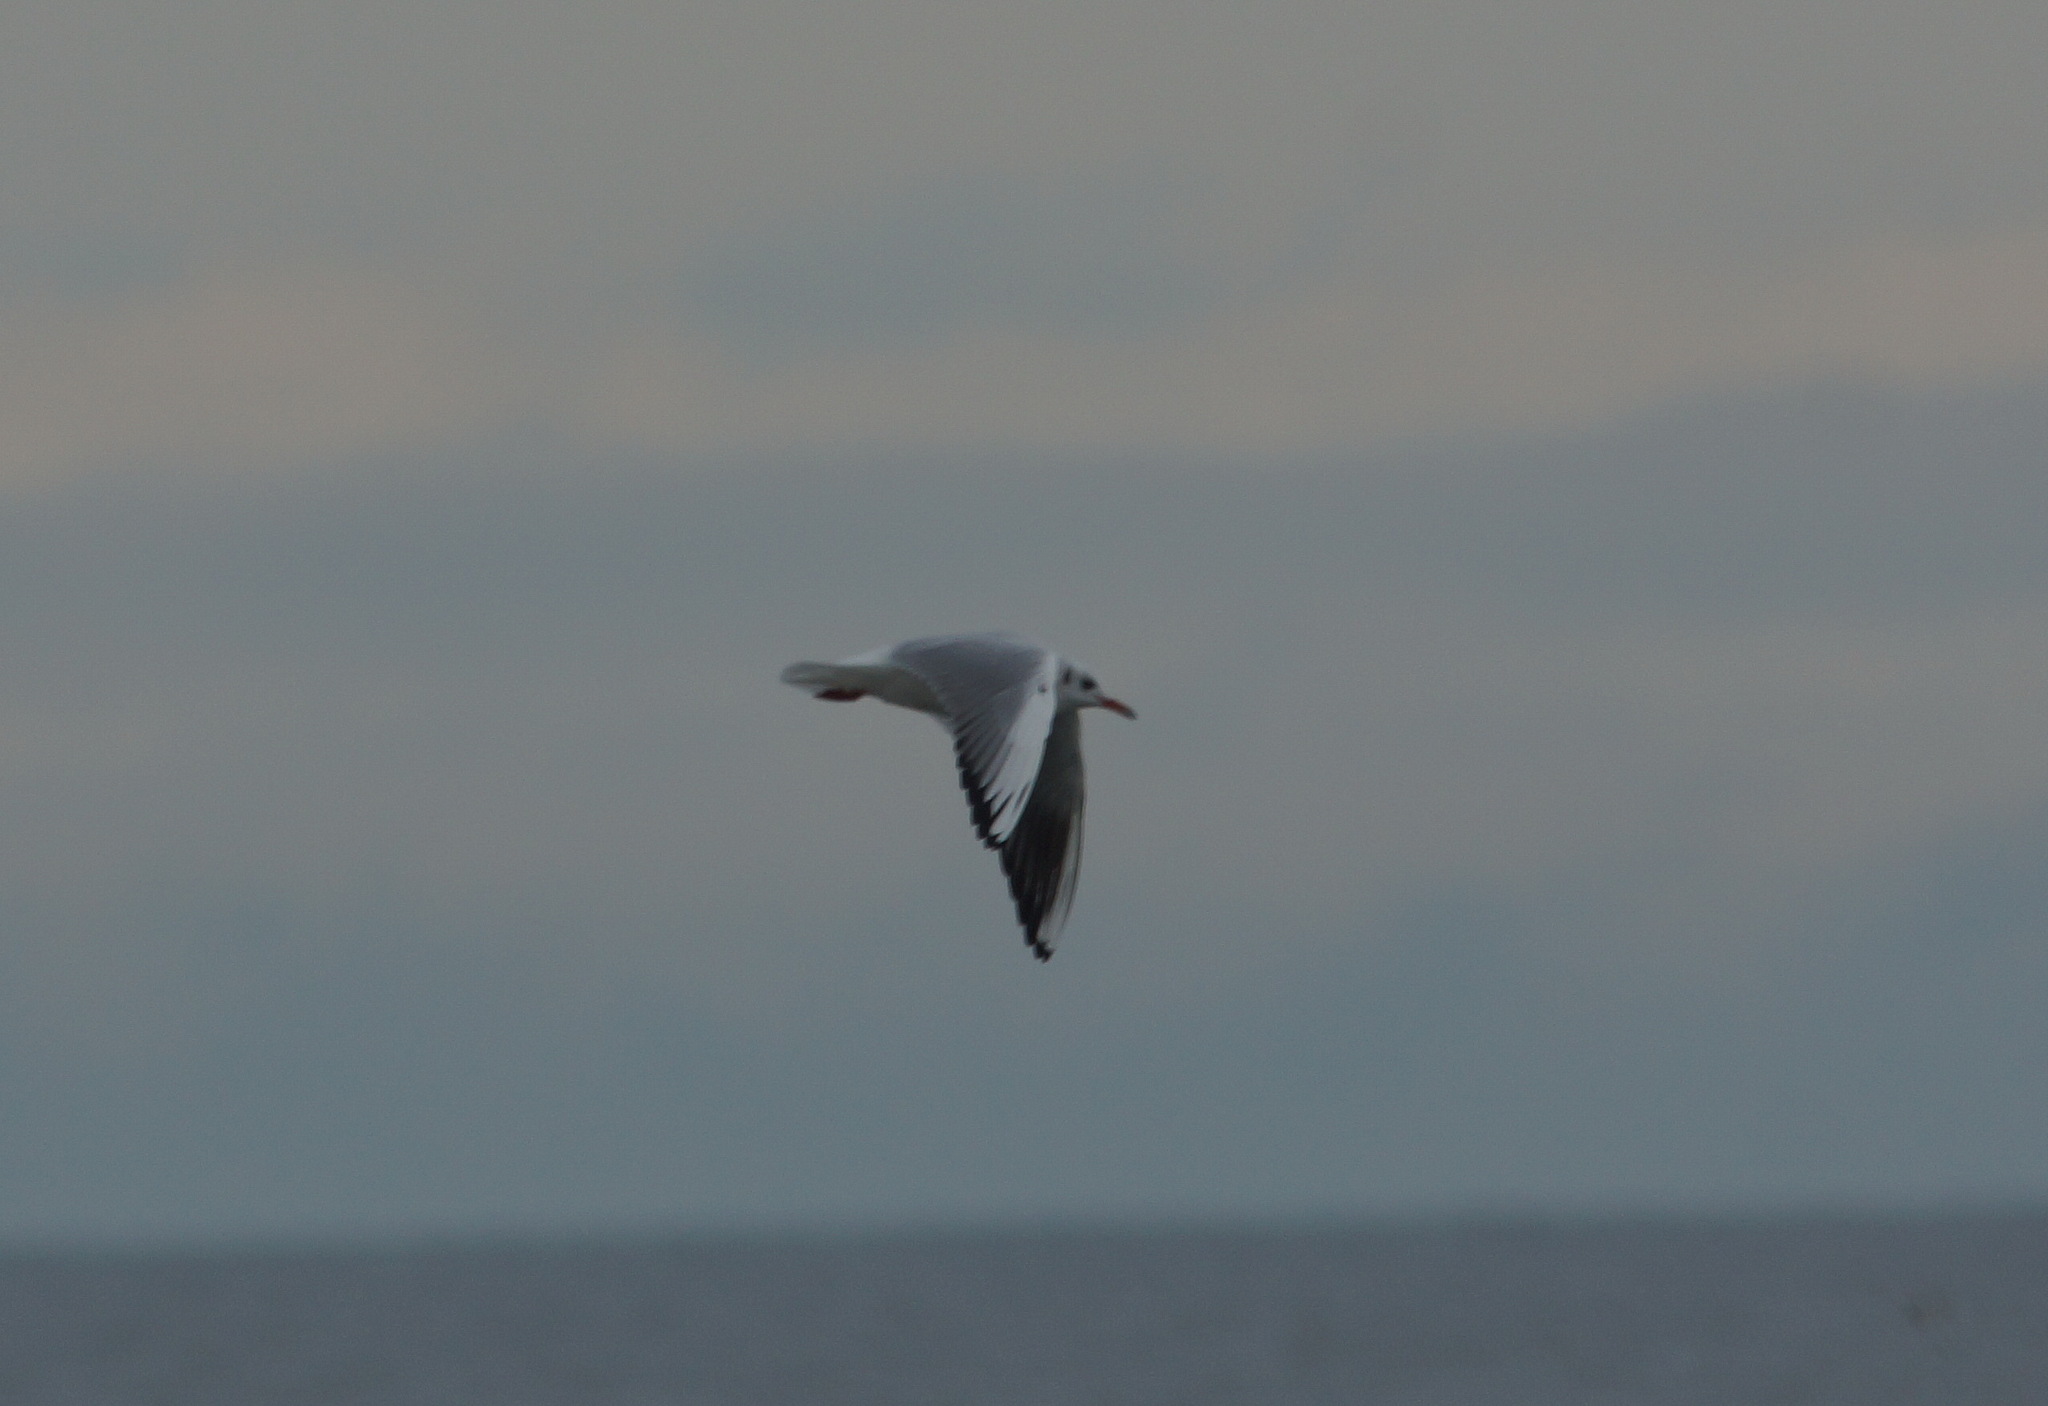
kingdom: Animalia
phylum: Chordata
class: Aves
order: Charadriiformes
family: Laridae
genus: Chroicocephalus
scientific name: Chroicocephalus ridibundus
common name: Black-headed gull
